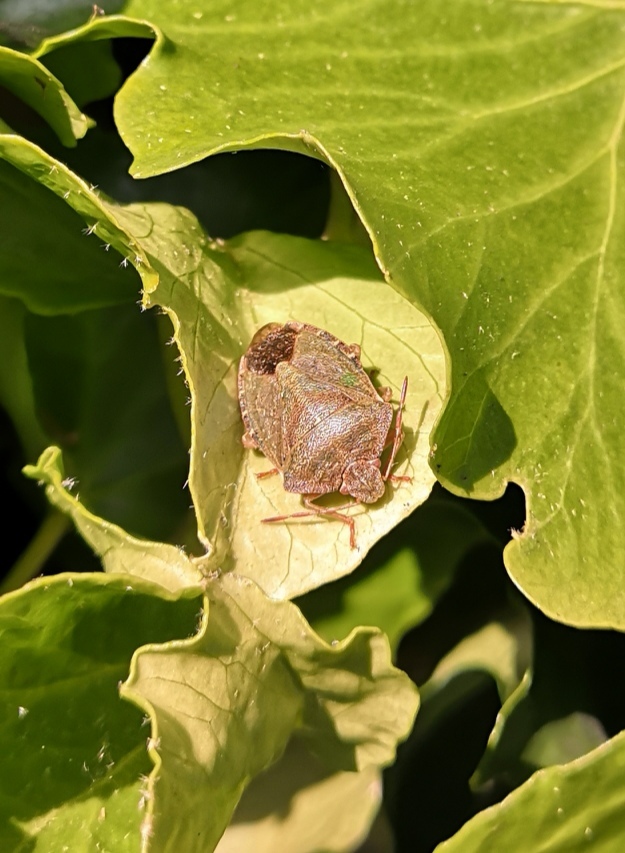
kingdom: Animalia
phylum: Arthropoda
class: Insecta
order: Hemiptera
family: Pentatomidae
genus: Palomena
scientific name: Palomena prasina
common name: Green shieldbug
